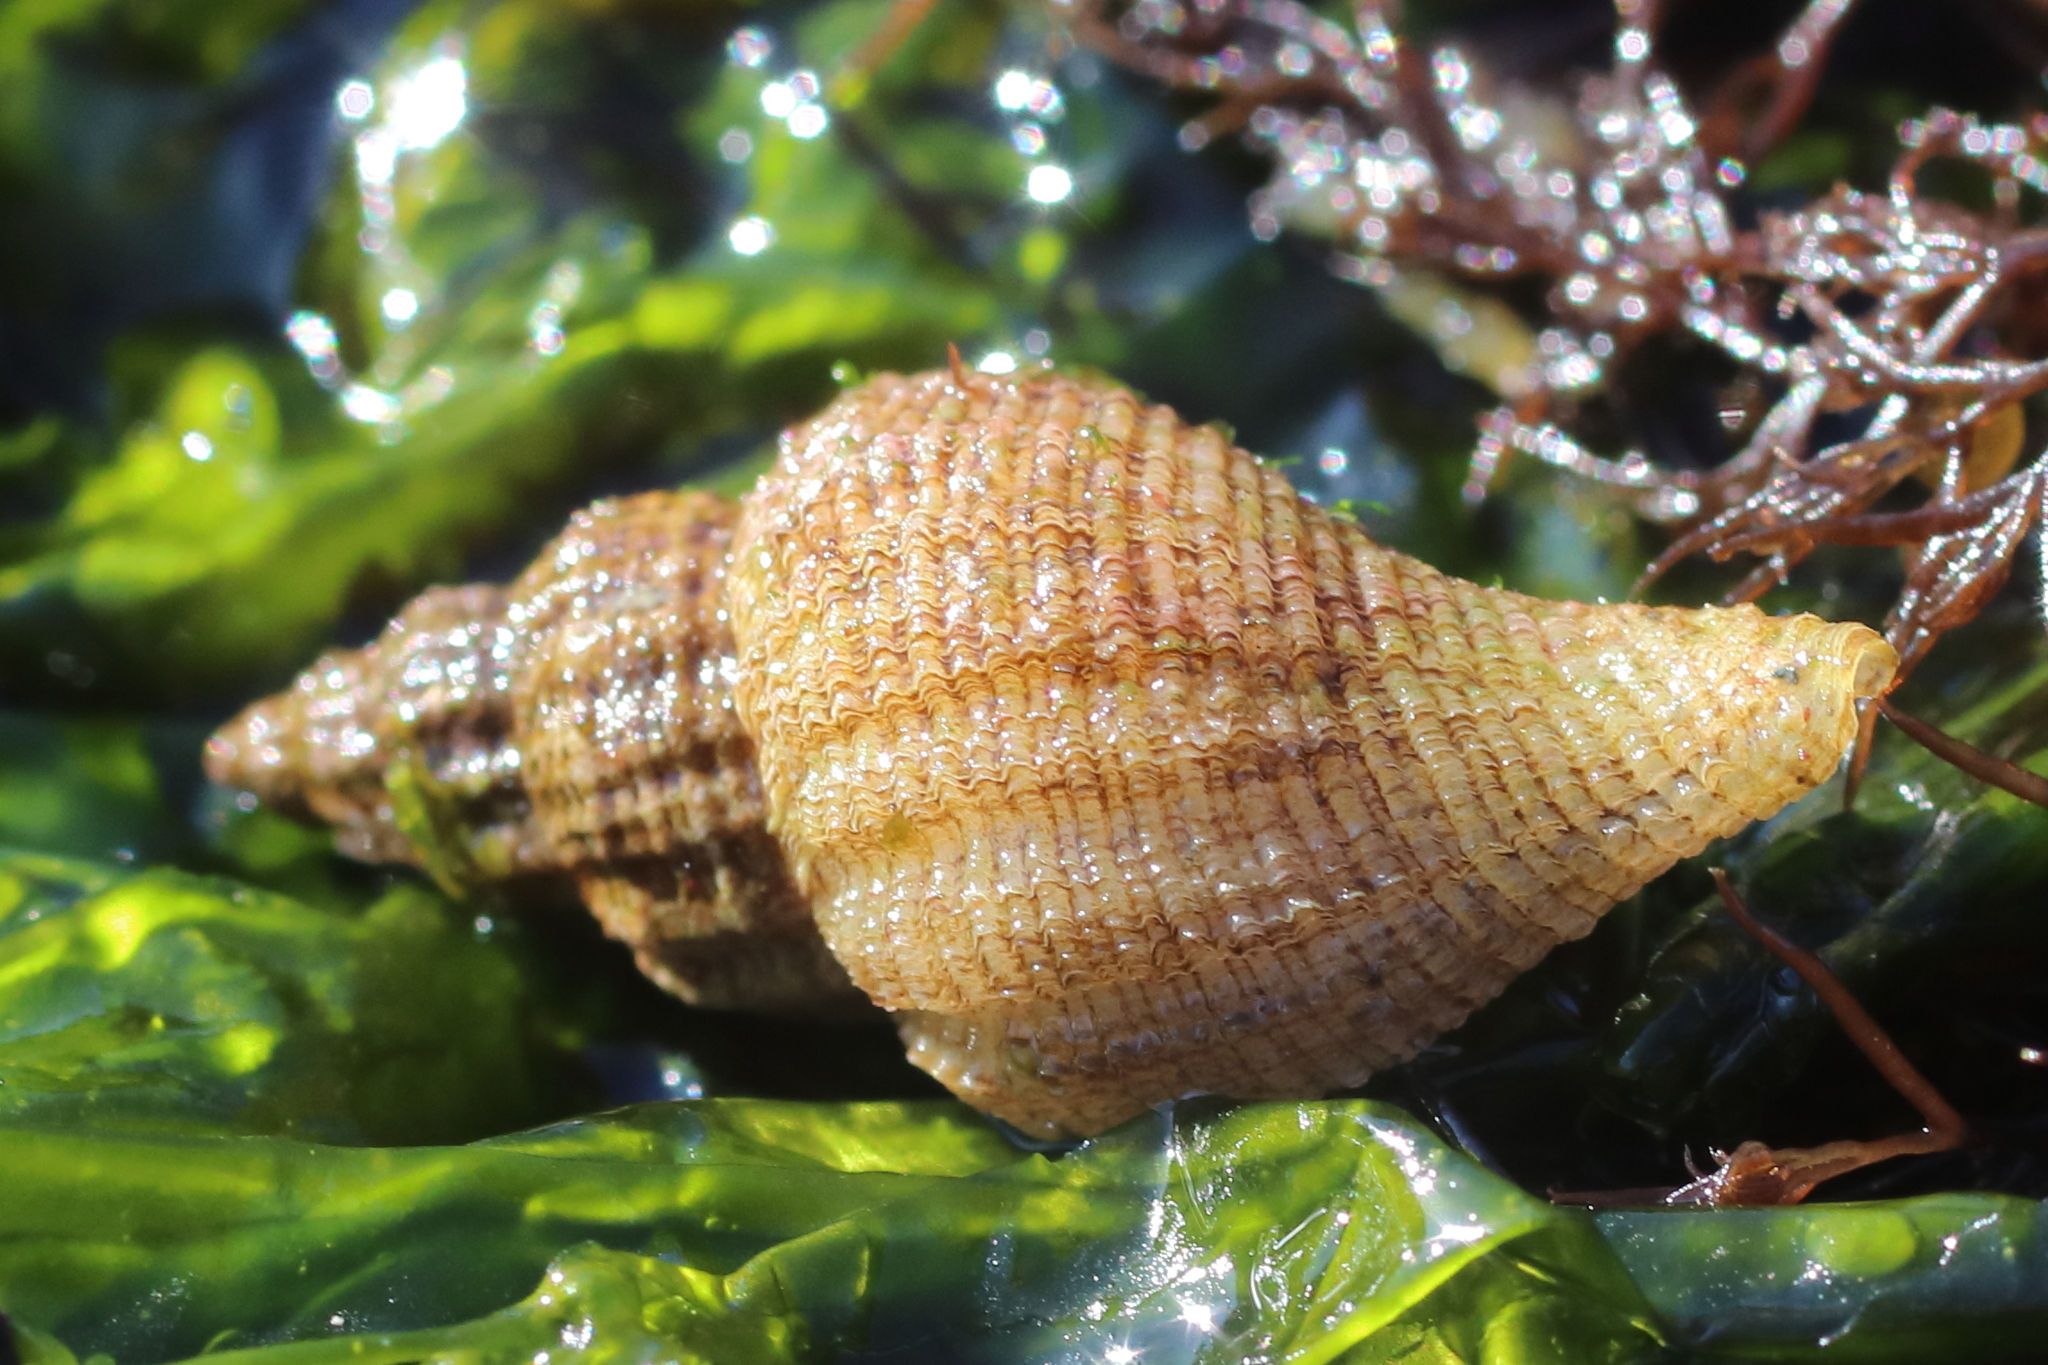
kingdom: Animalia
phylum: Mollusca
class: Gastropoda
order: Neogastropoda
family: Muricidae
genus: Scabrotrophon
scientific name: Scabrotrophon maltzani
